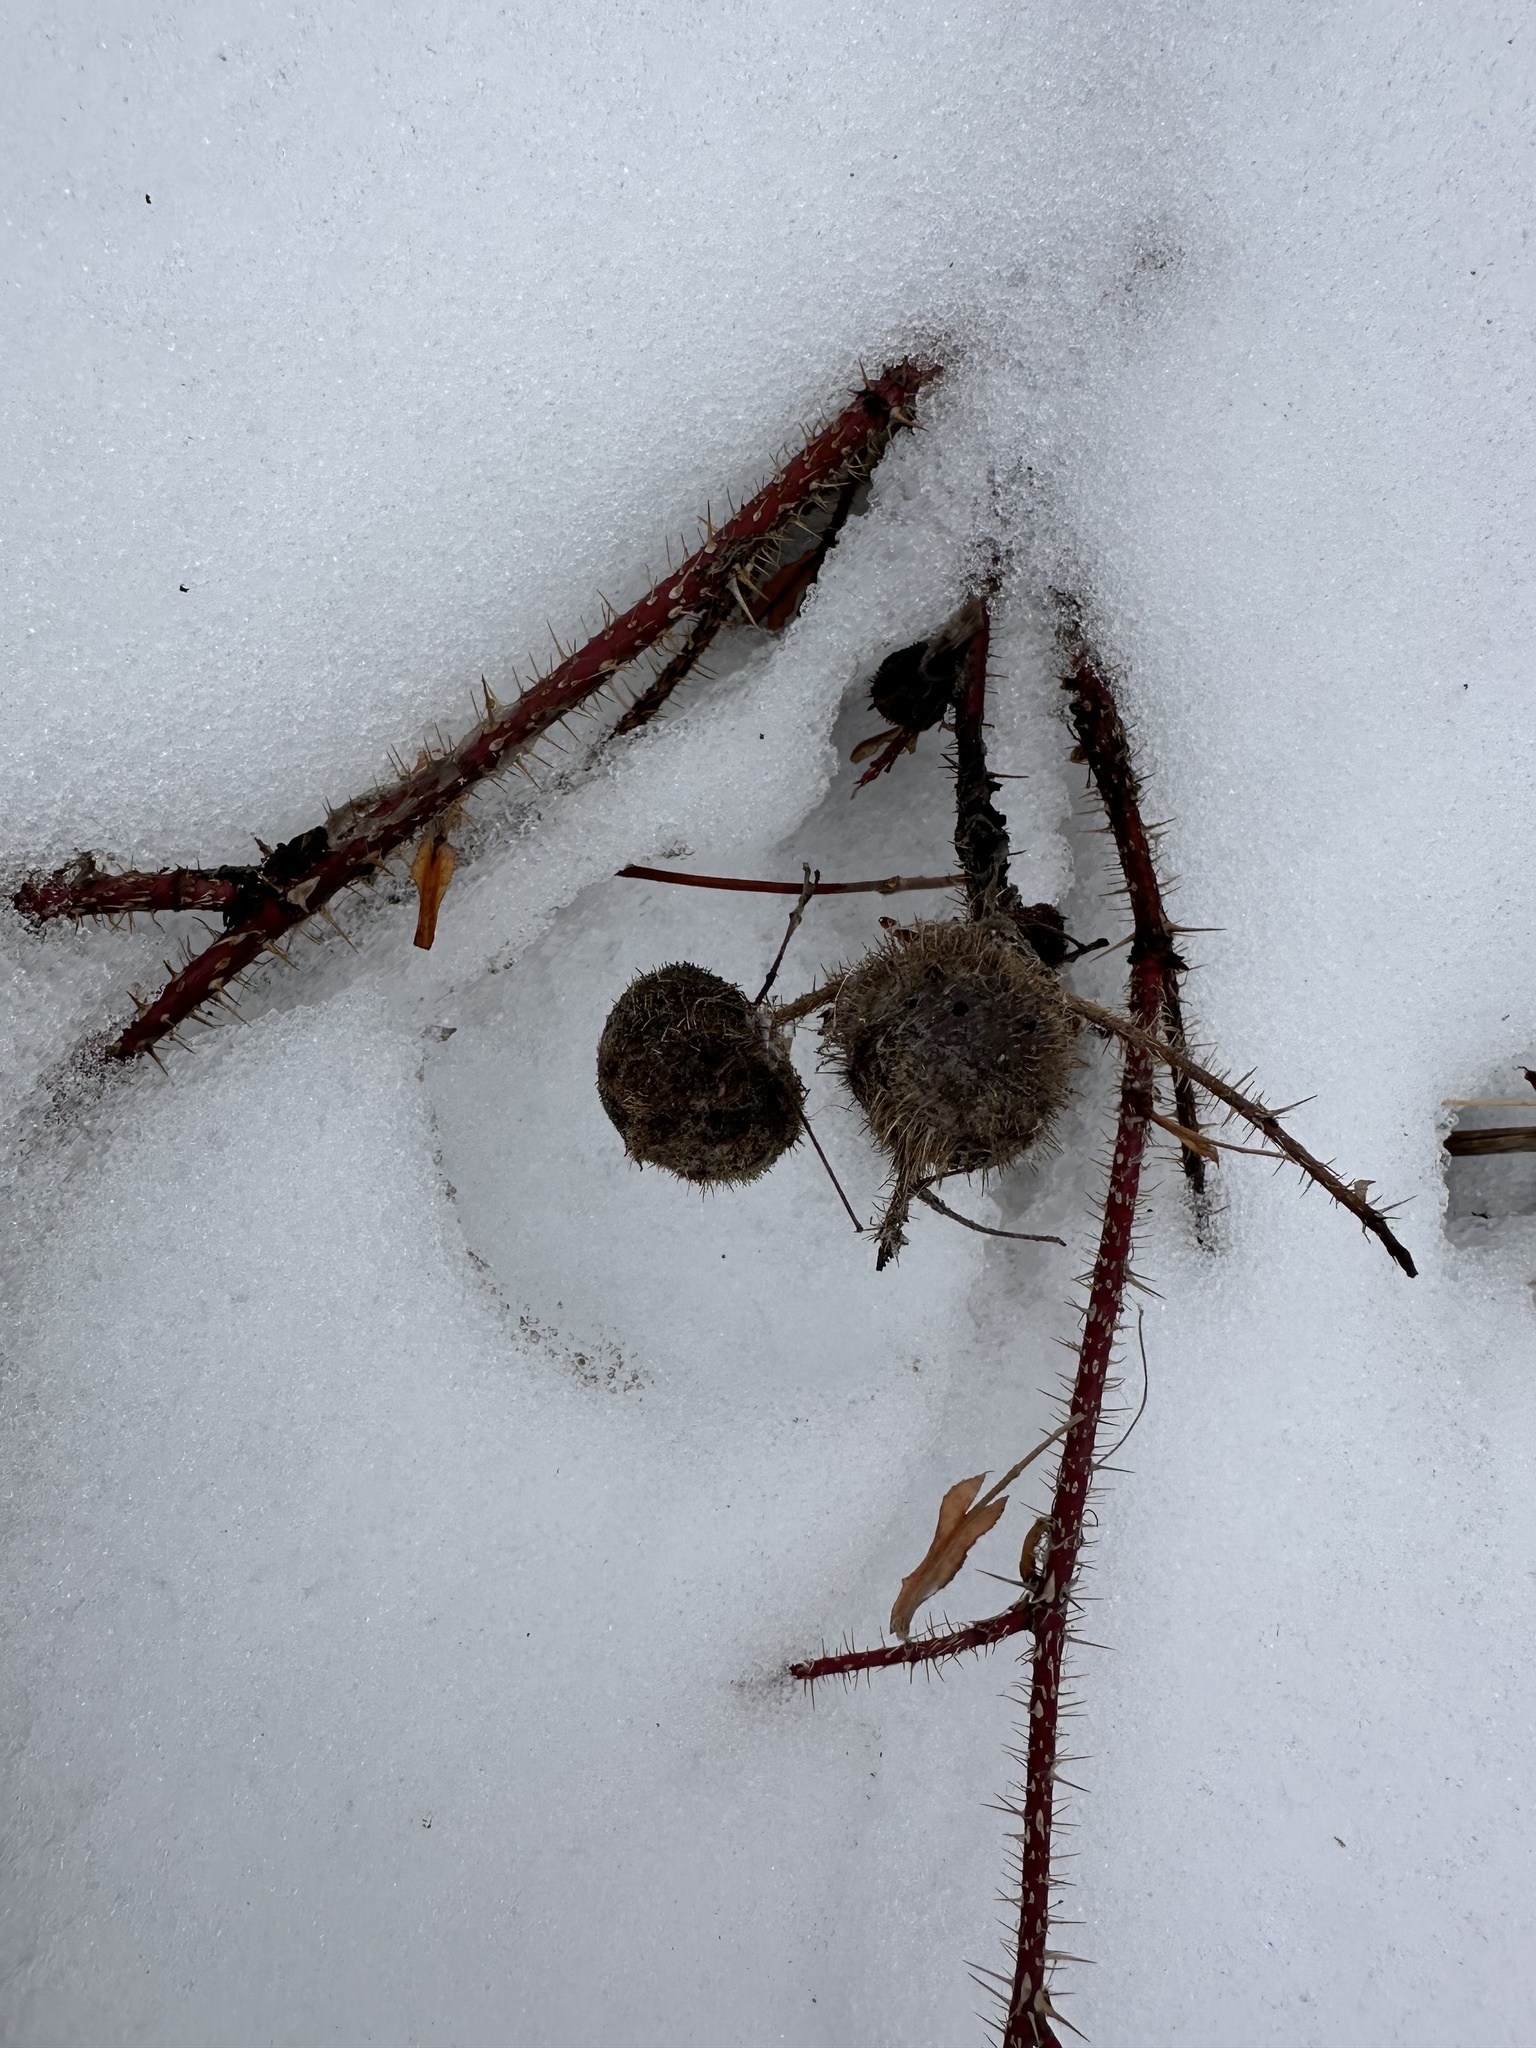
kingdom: Animalia
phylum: Arthropoda
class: Insecta
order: Hymenoptera
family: Cynipidae
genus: Diplolepis
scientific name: Diplolepis spinosa
